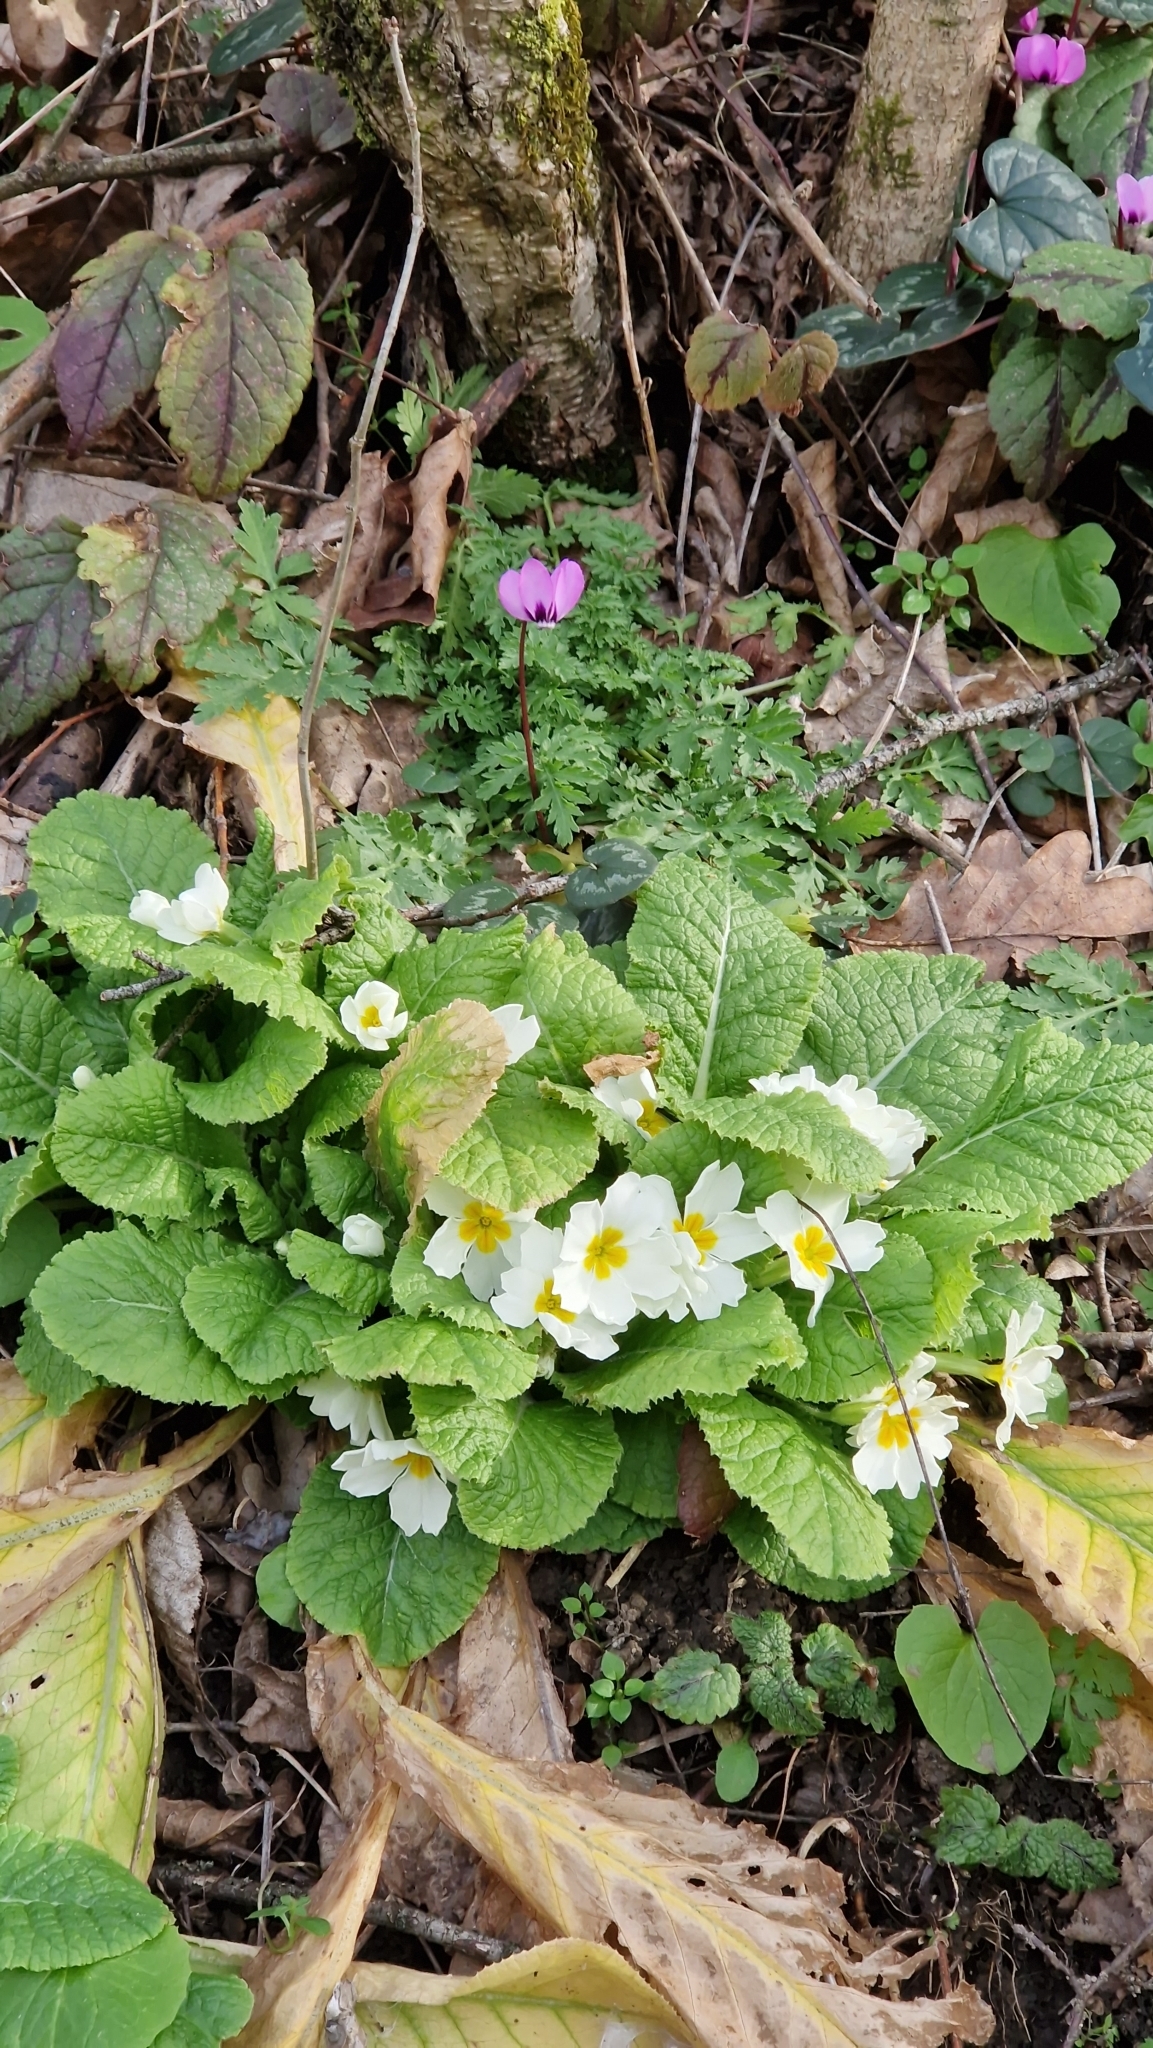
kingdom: Plantae
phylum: Tracheophyta
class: Magnoliopsida
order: Ericales
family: Primulaceae
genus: Primula
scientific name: Primula vulgaris
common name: Primrose
